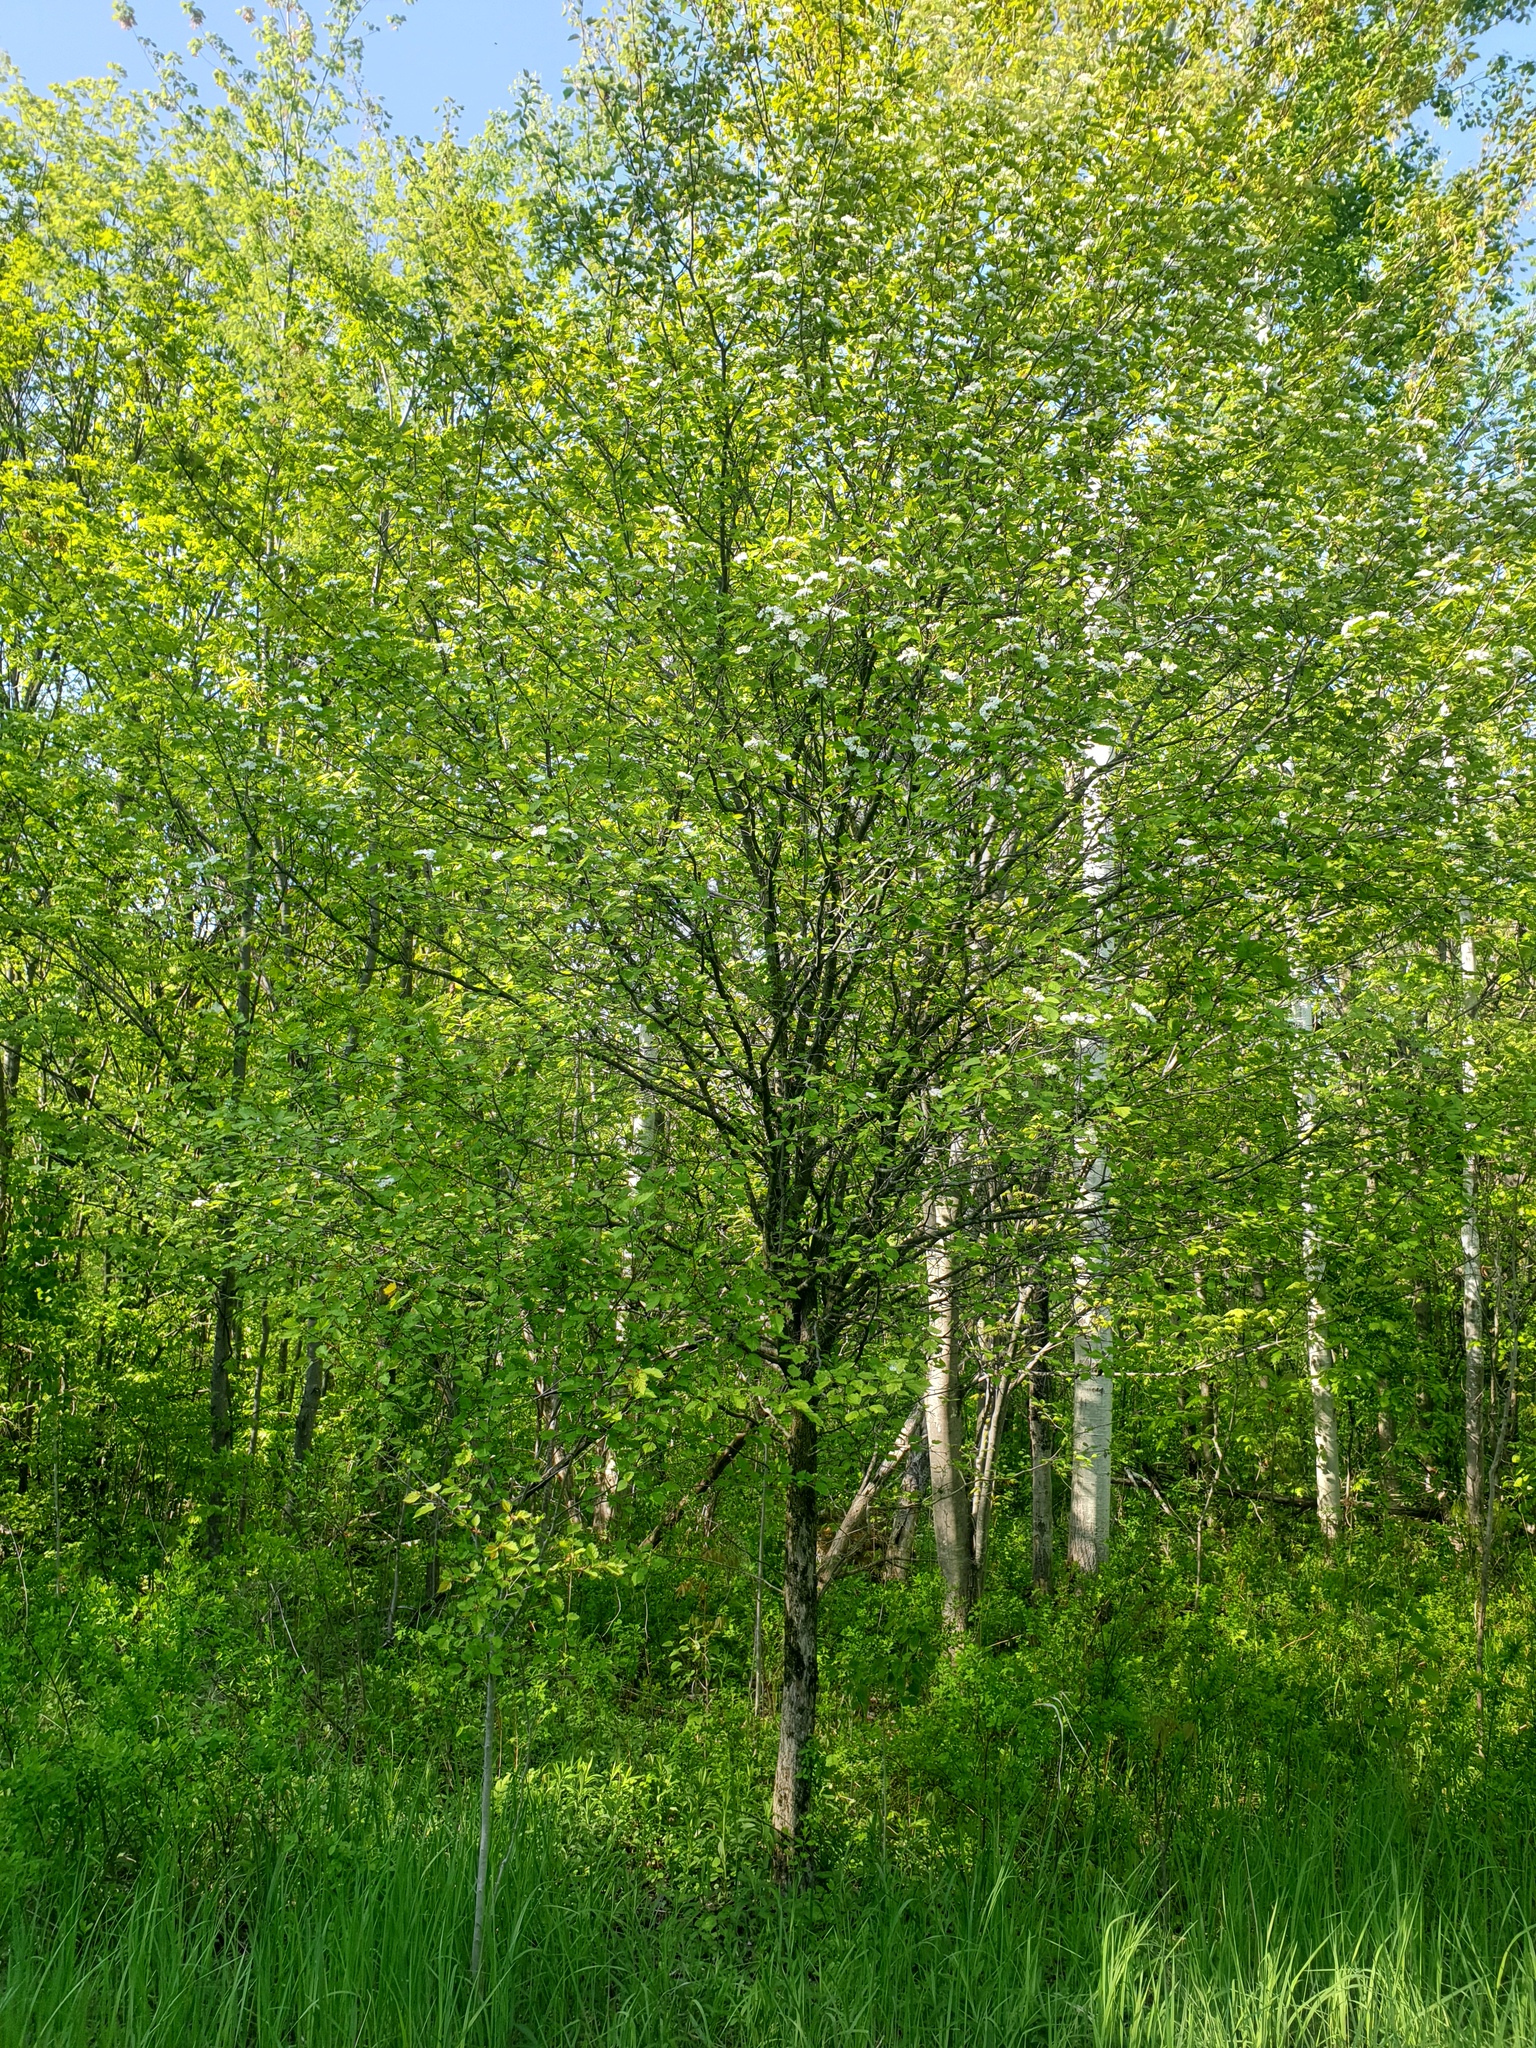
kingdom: Plantae
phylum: Tracheophyta
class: Magnoliopsida
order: Rosales
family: Rosaceae
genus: Crataegus
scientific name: Crataegus holmesiana
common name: Holmes' hawthorn
